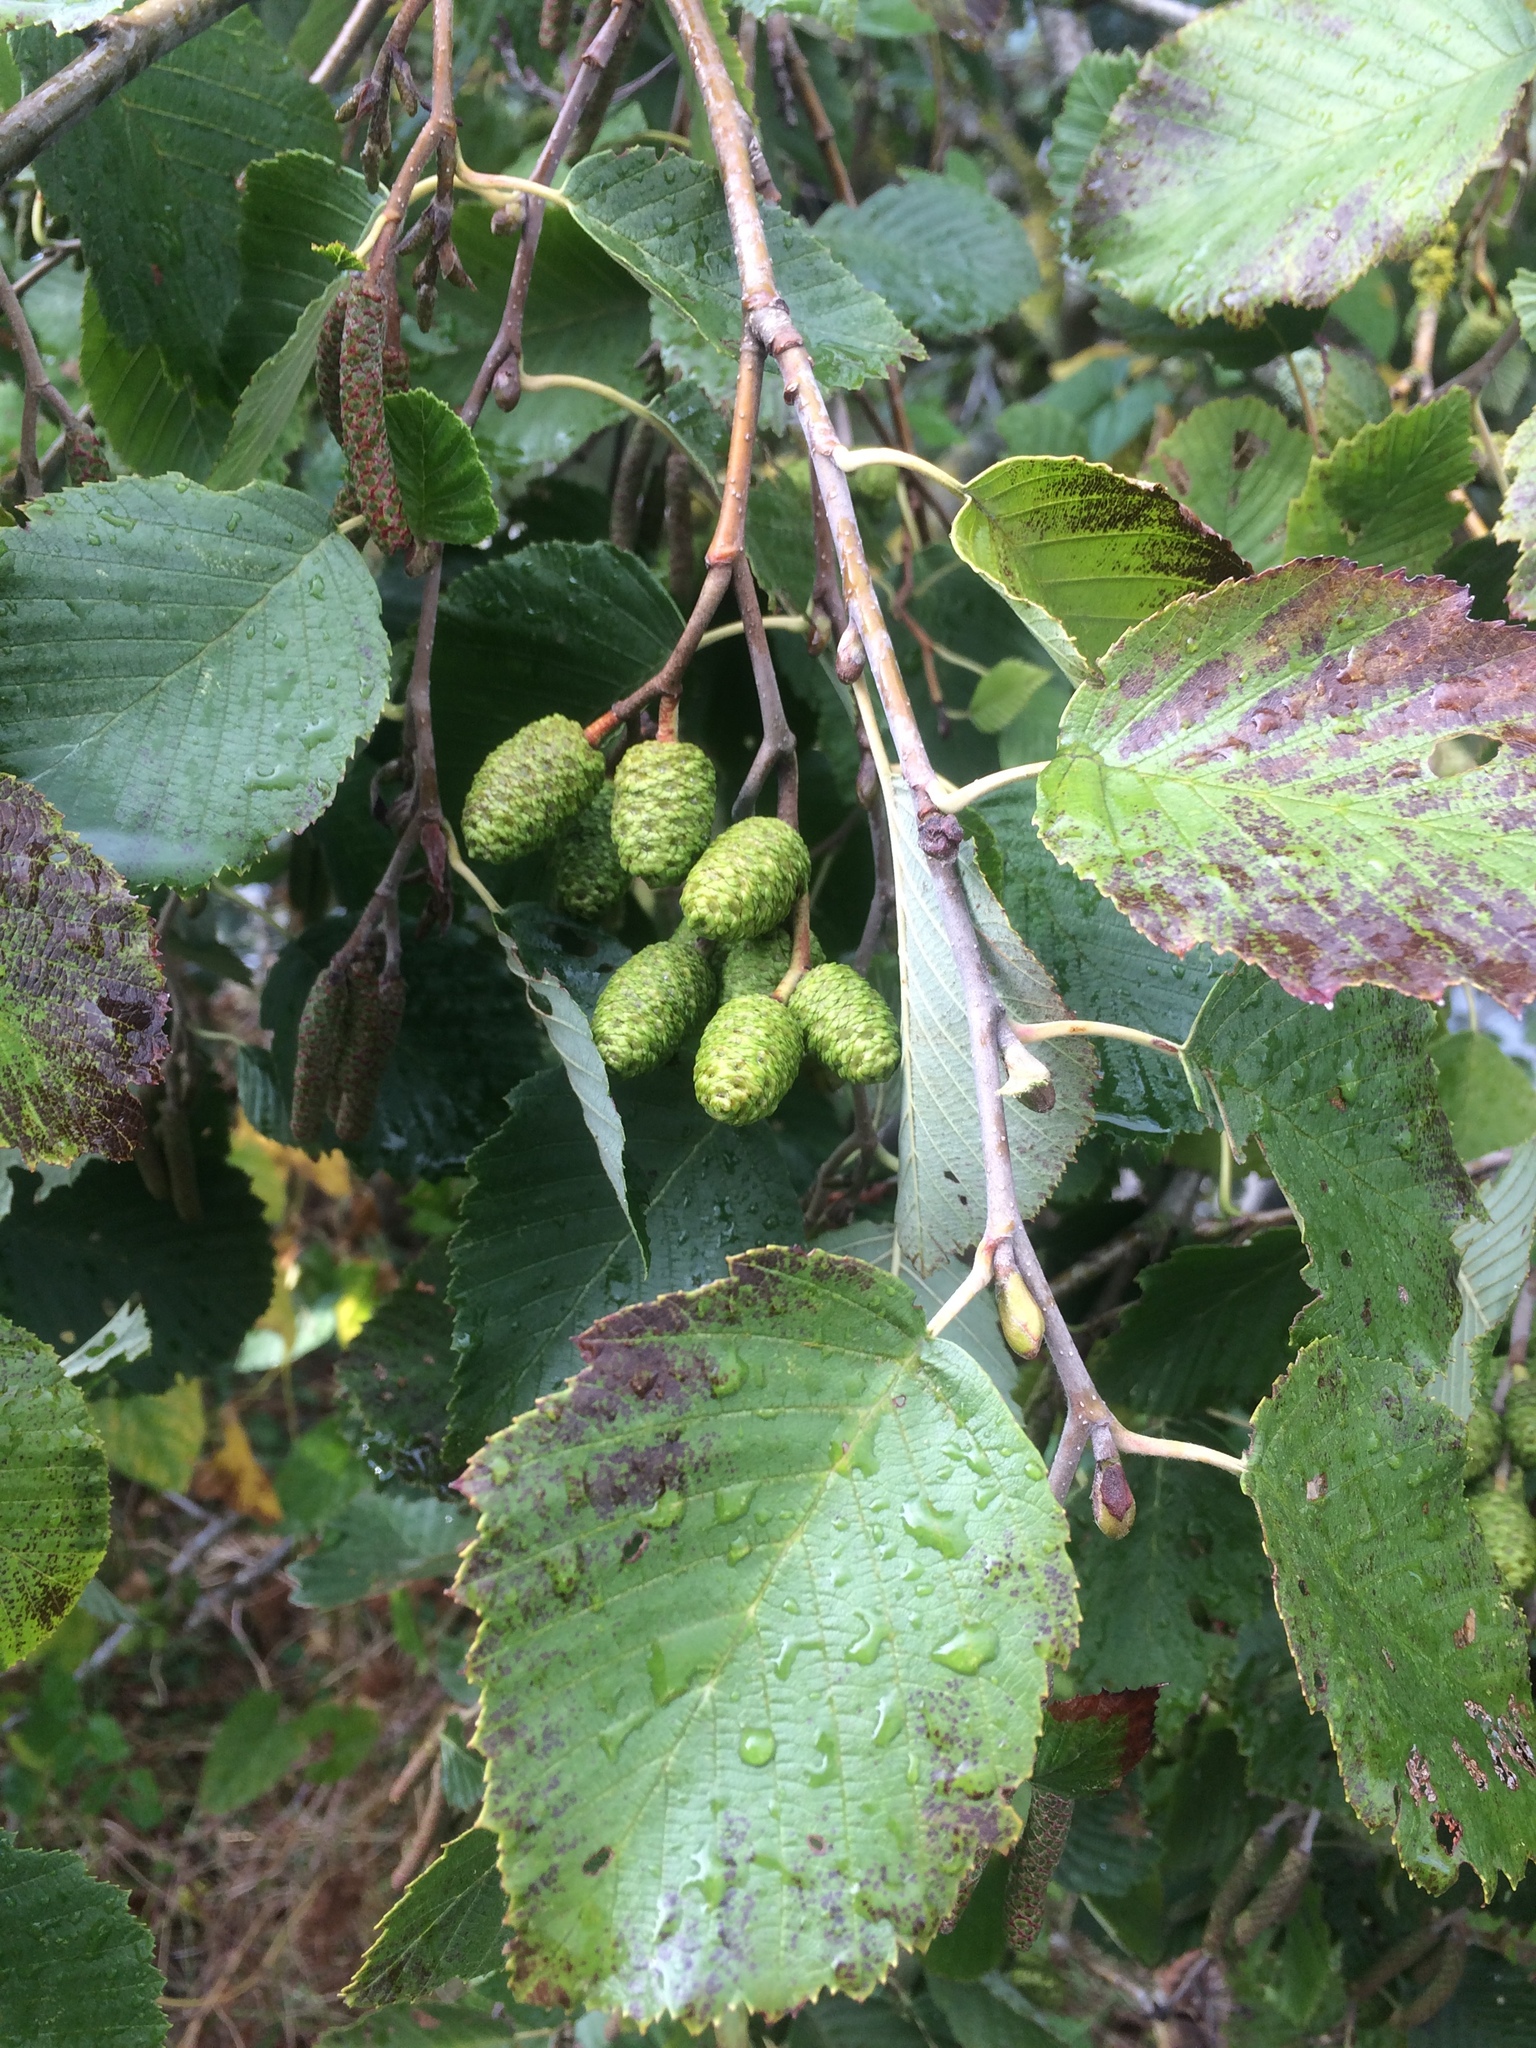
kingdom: Plantae
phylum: Tracheophyta
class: Magnoliopsida
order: Fagales
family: Betulaceae
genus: Alnus
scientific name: Alnus glutinosa
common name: Black alder
